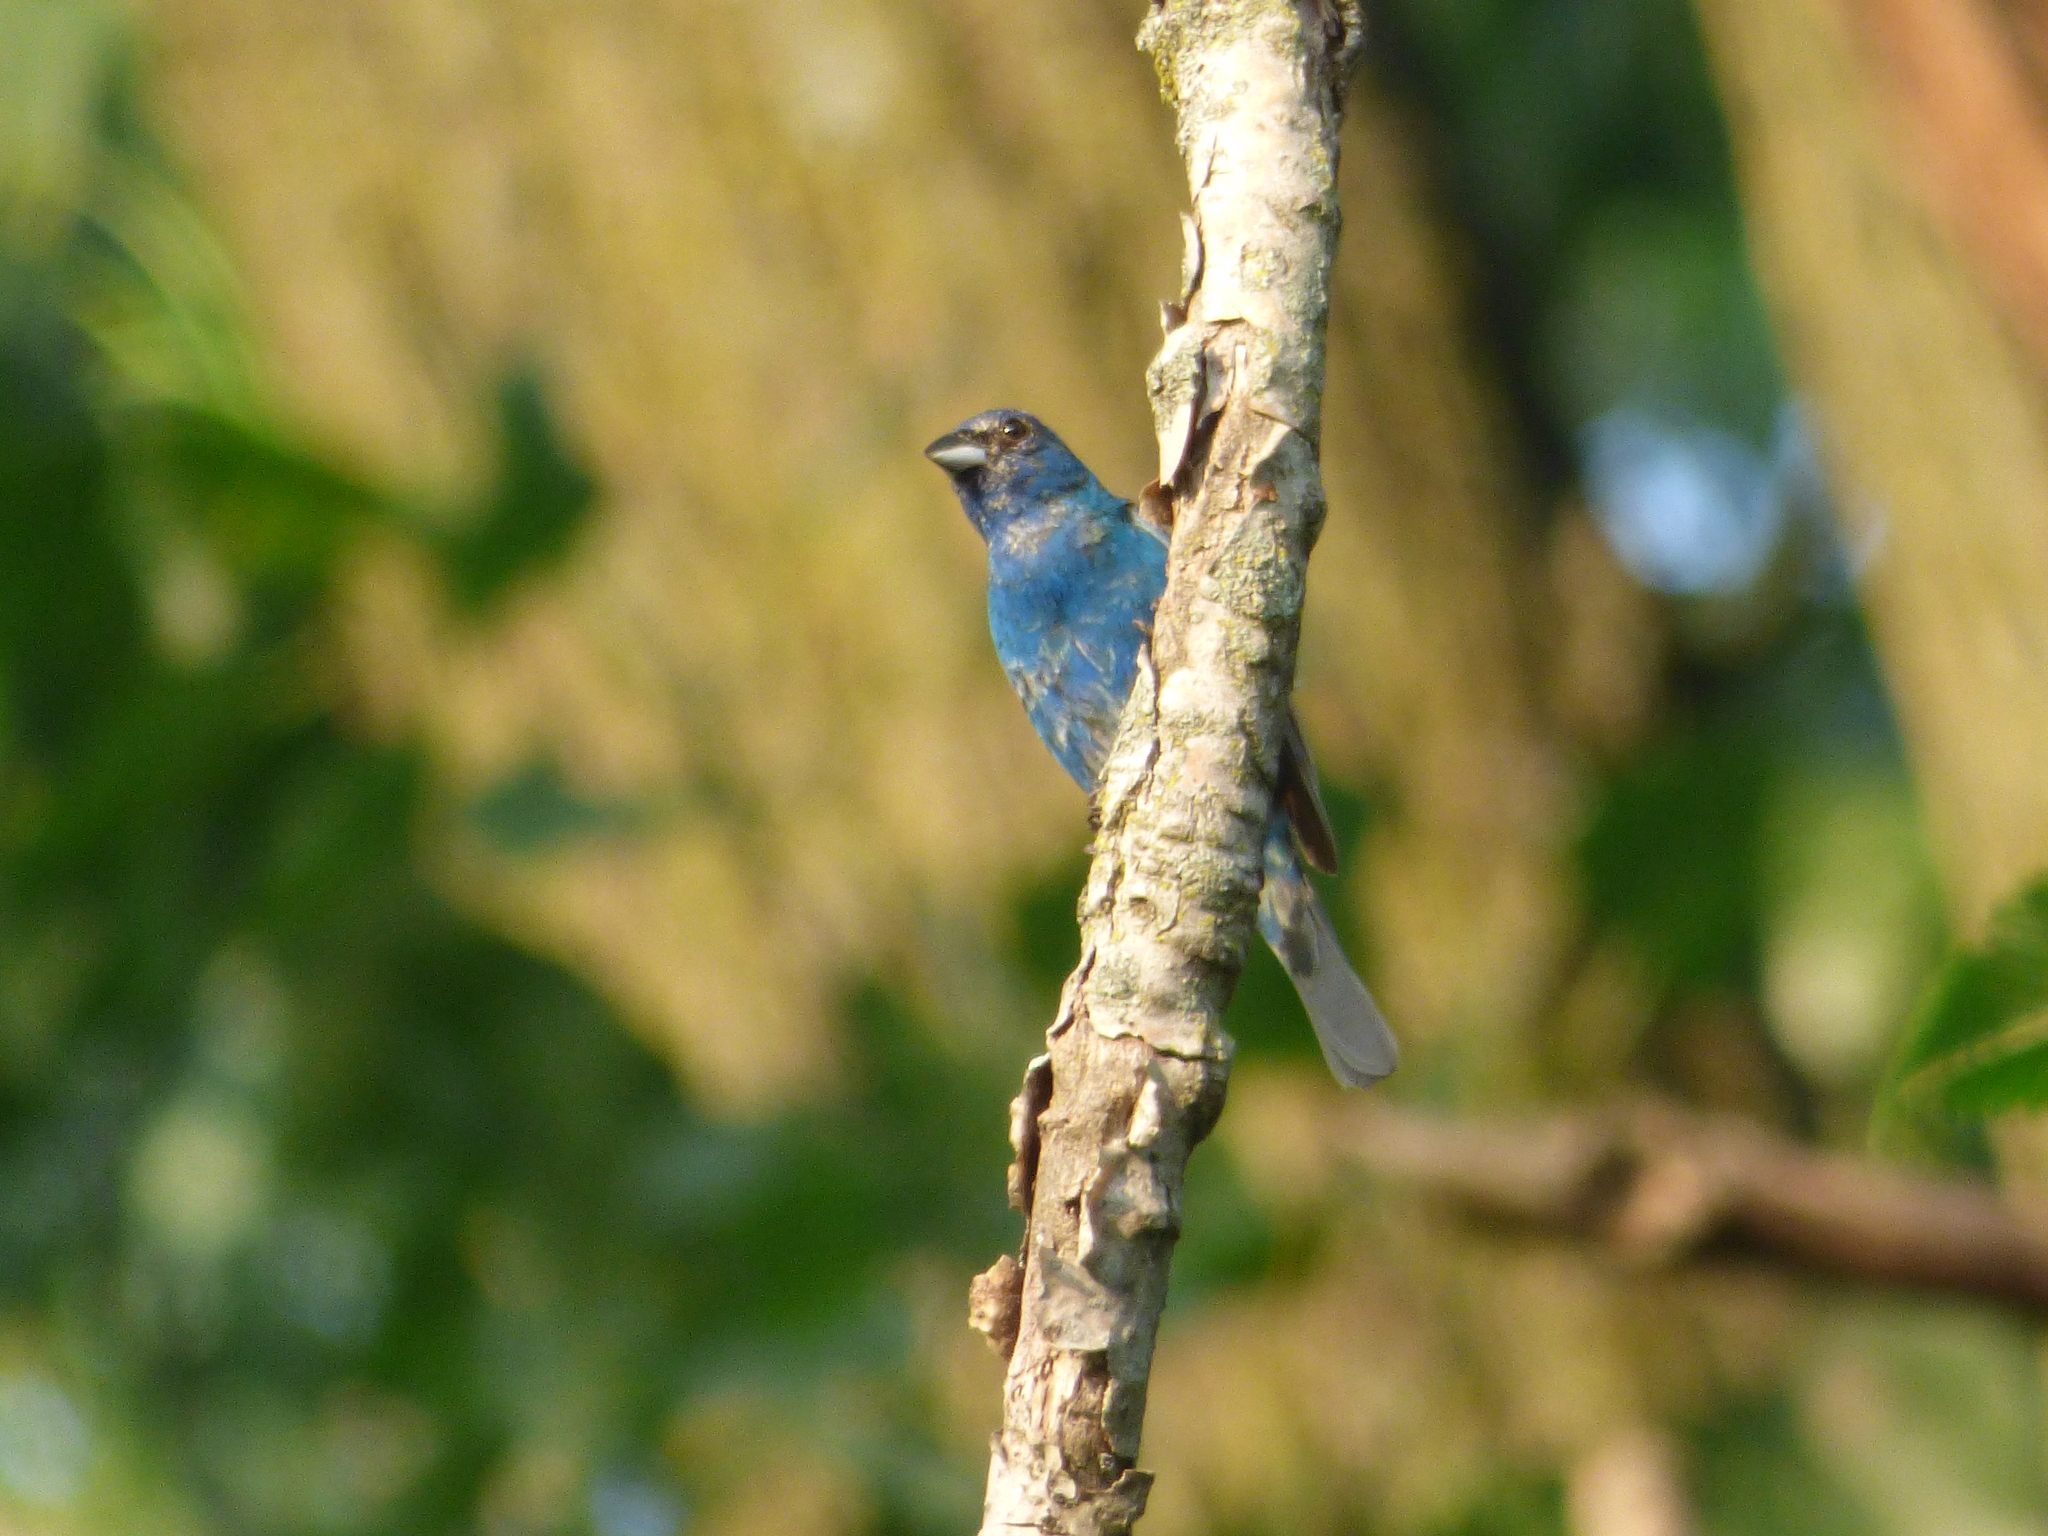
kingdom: Animalia
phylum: Chordata
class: Aves
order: Passeriformes
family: Cardinalidae
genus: Passerina
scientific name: Passerina cyanea
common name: Indigo bunting
